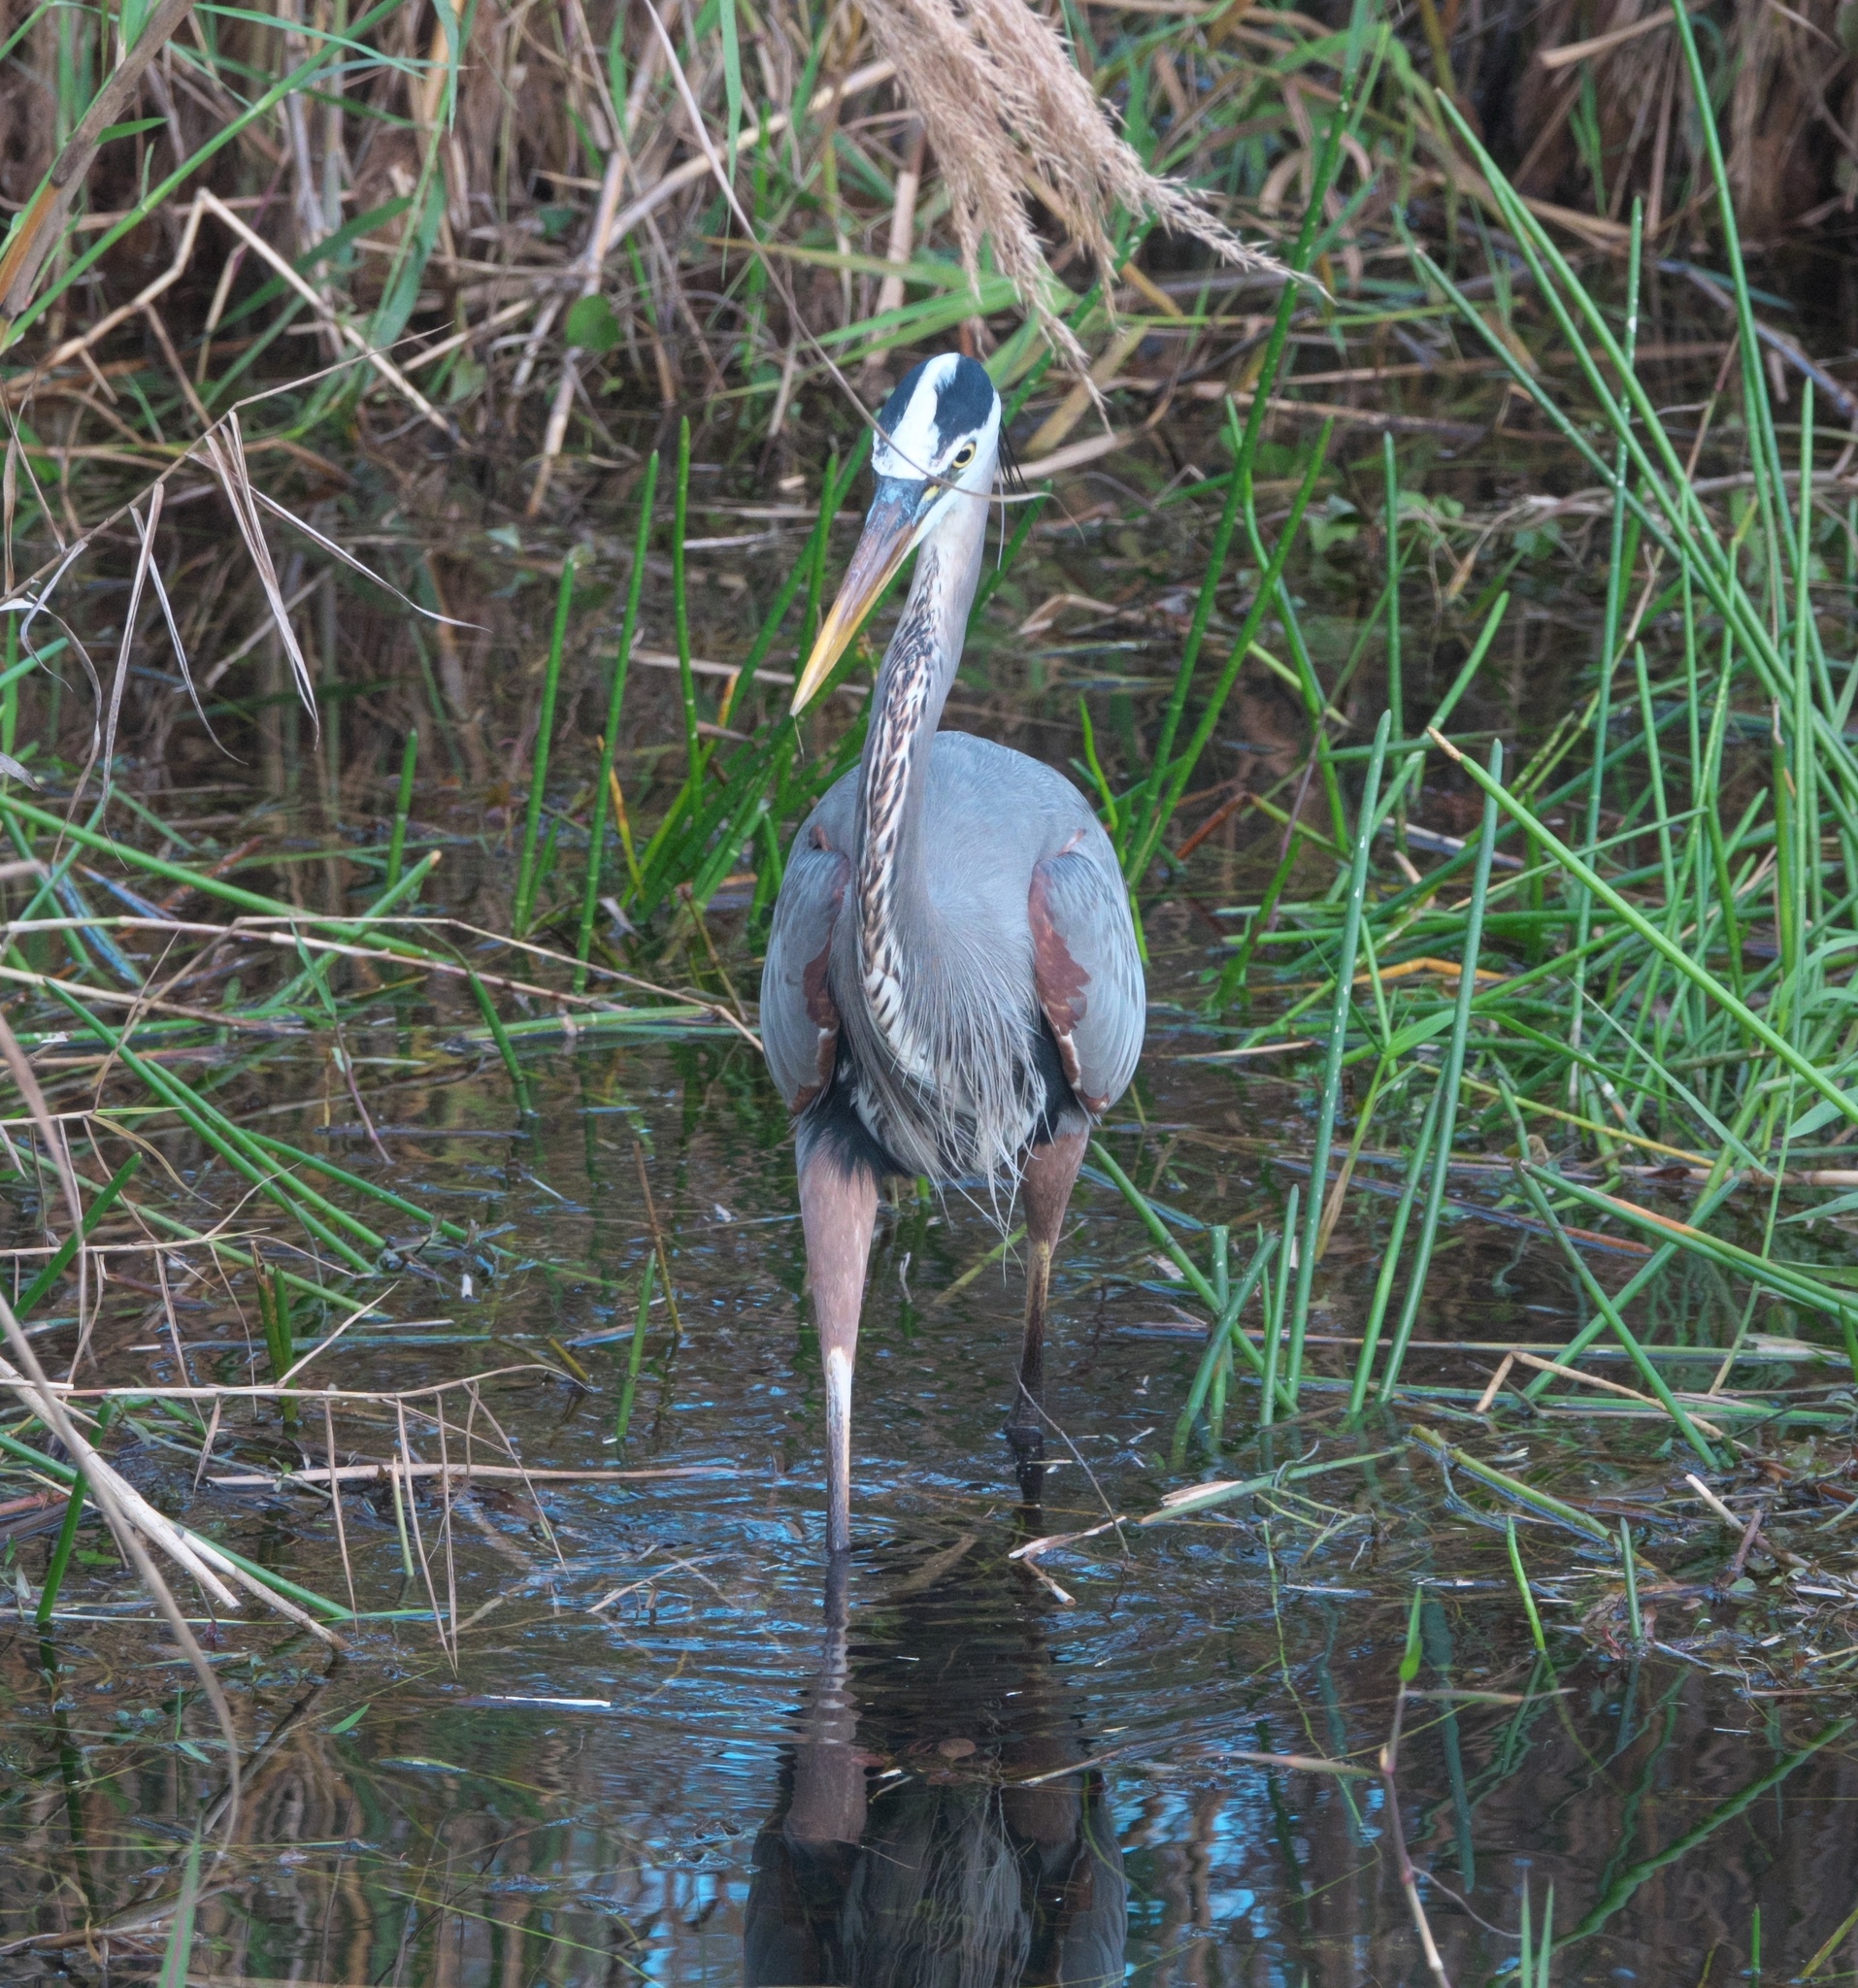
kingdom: Animalia
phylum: Chordata
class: Aves
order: Pelecaniformes
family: Ardeidae
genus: Ardea
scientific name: Ardea herodias
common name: Great blue heron
